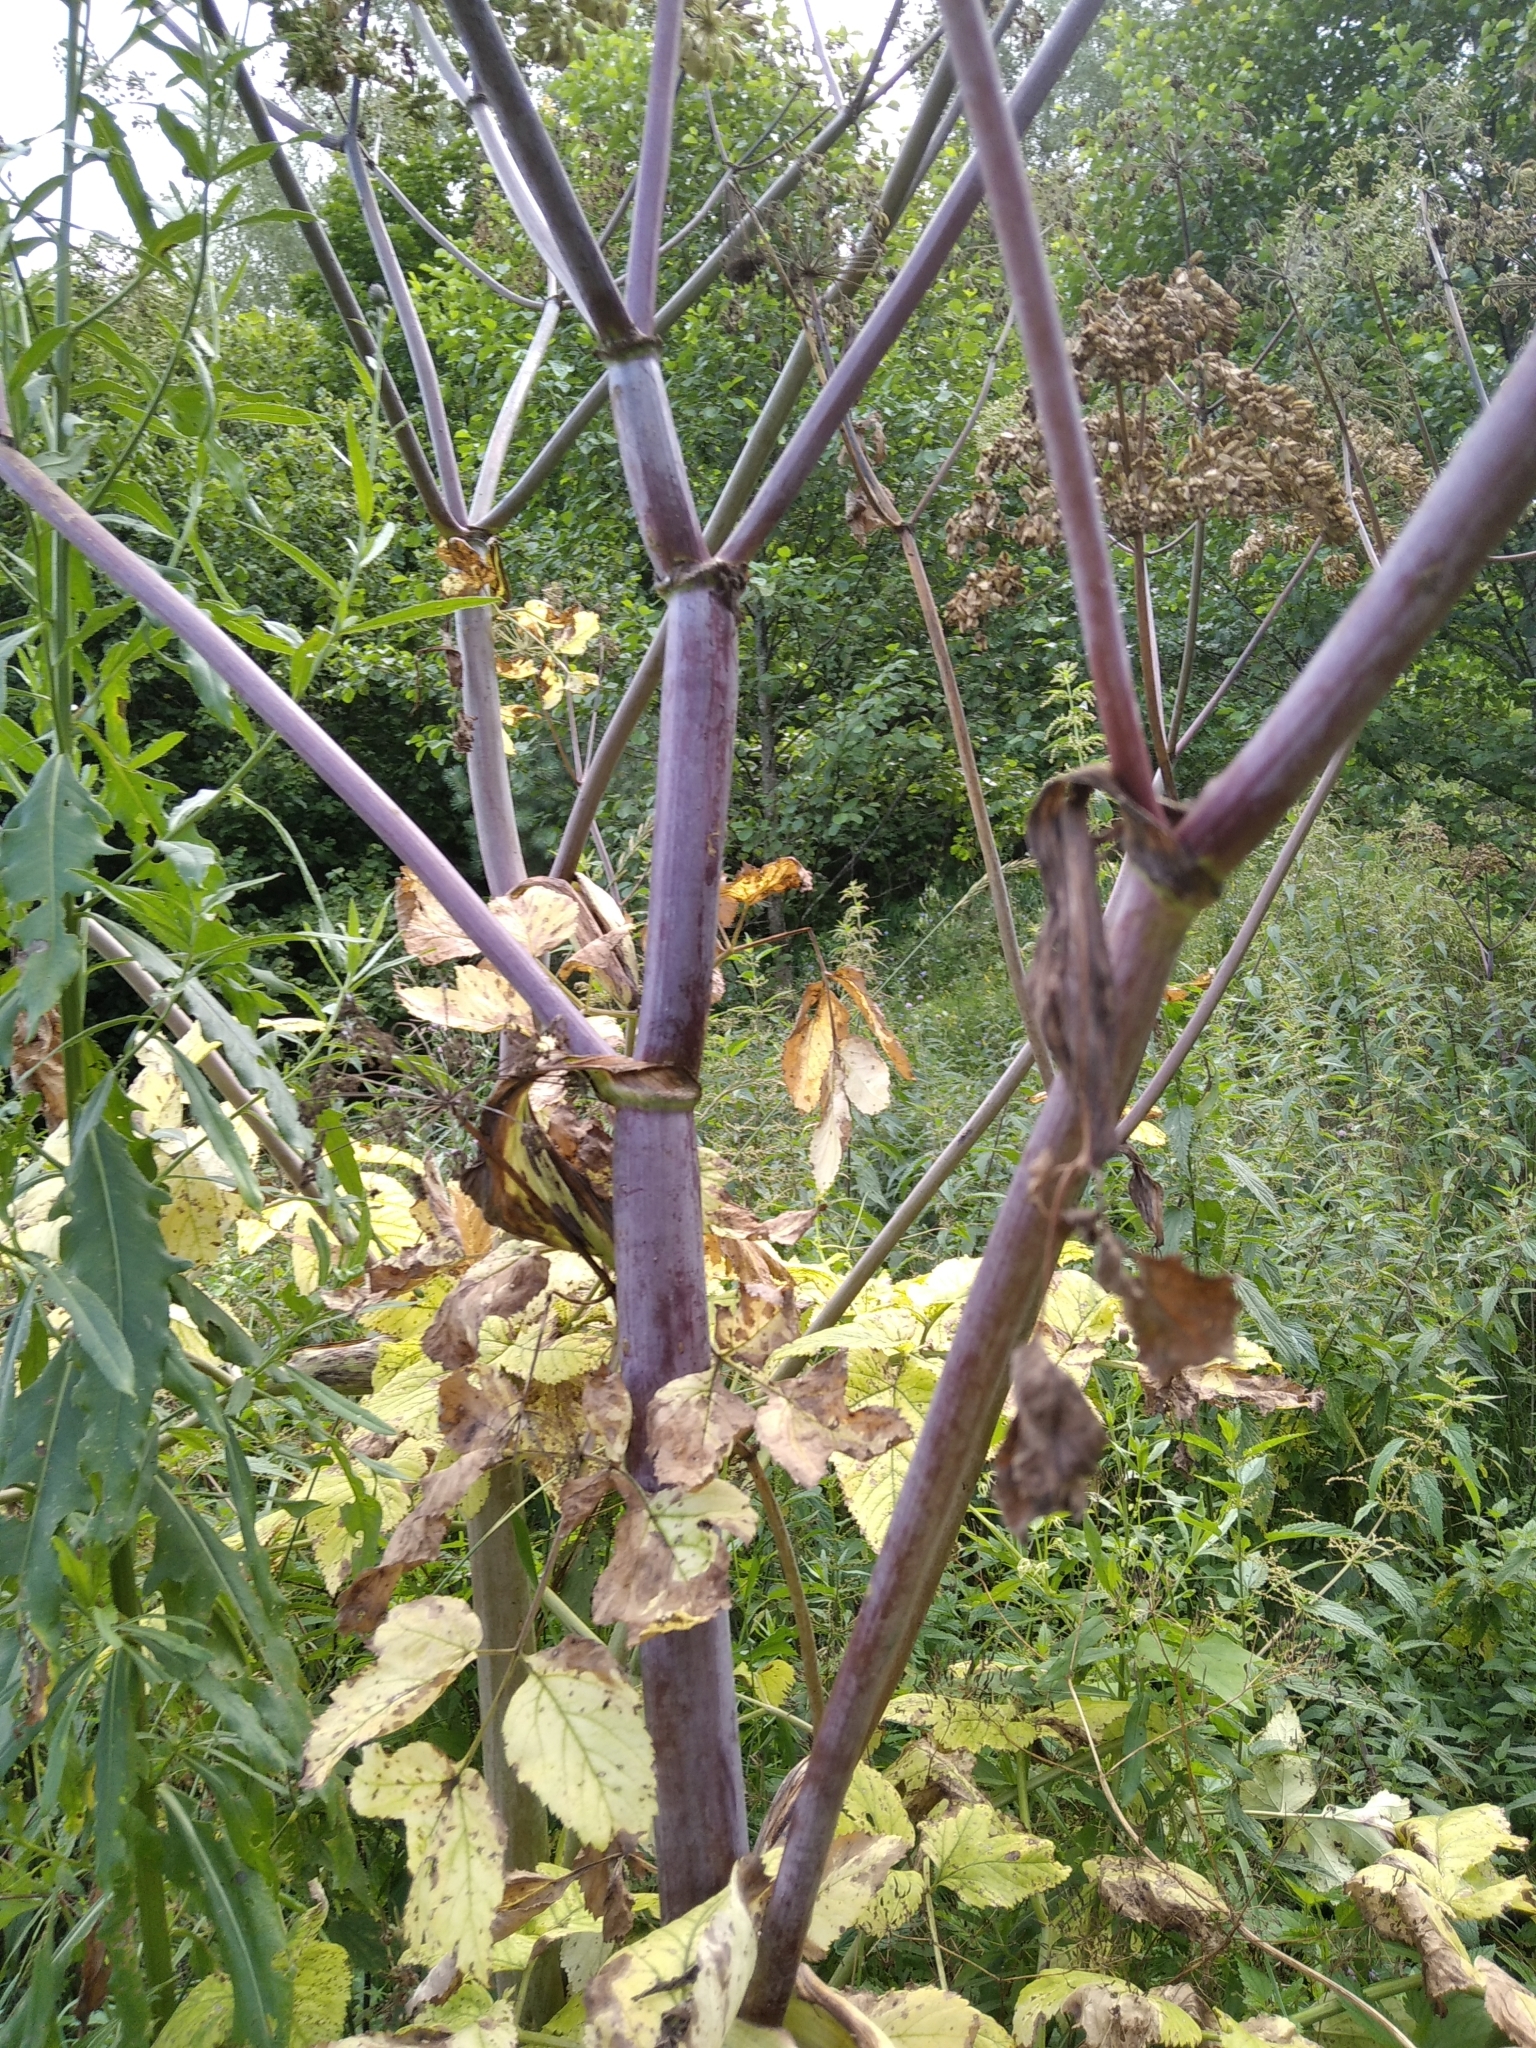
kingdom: Plantae
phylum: Tracheophyta
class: Magnoliopsida
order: Apiales
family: Apiaceae
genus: Angelica
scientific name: Angelica archangelica
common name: Garden angelica
